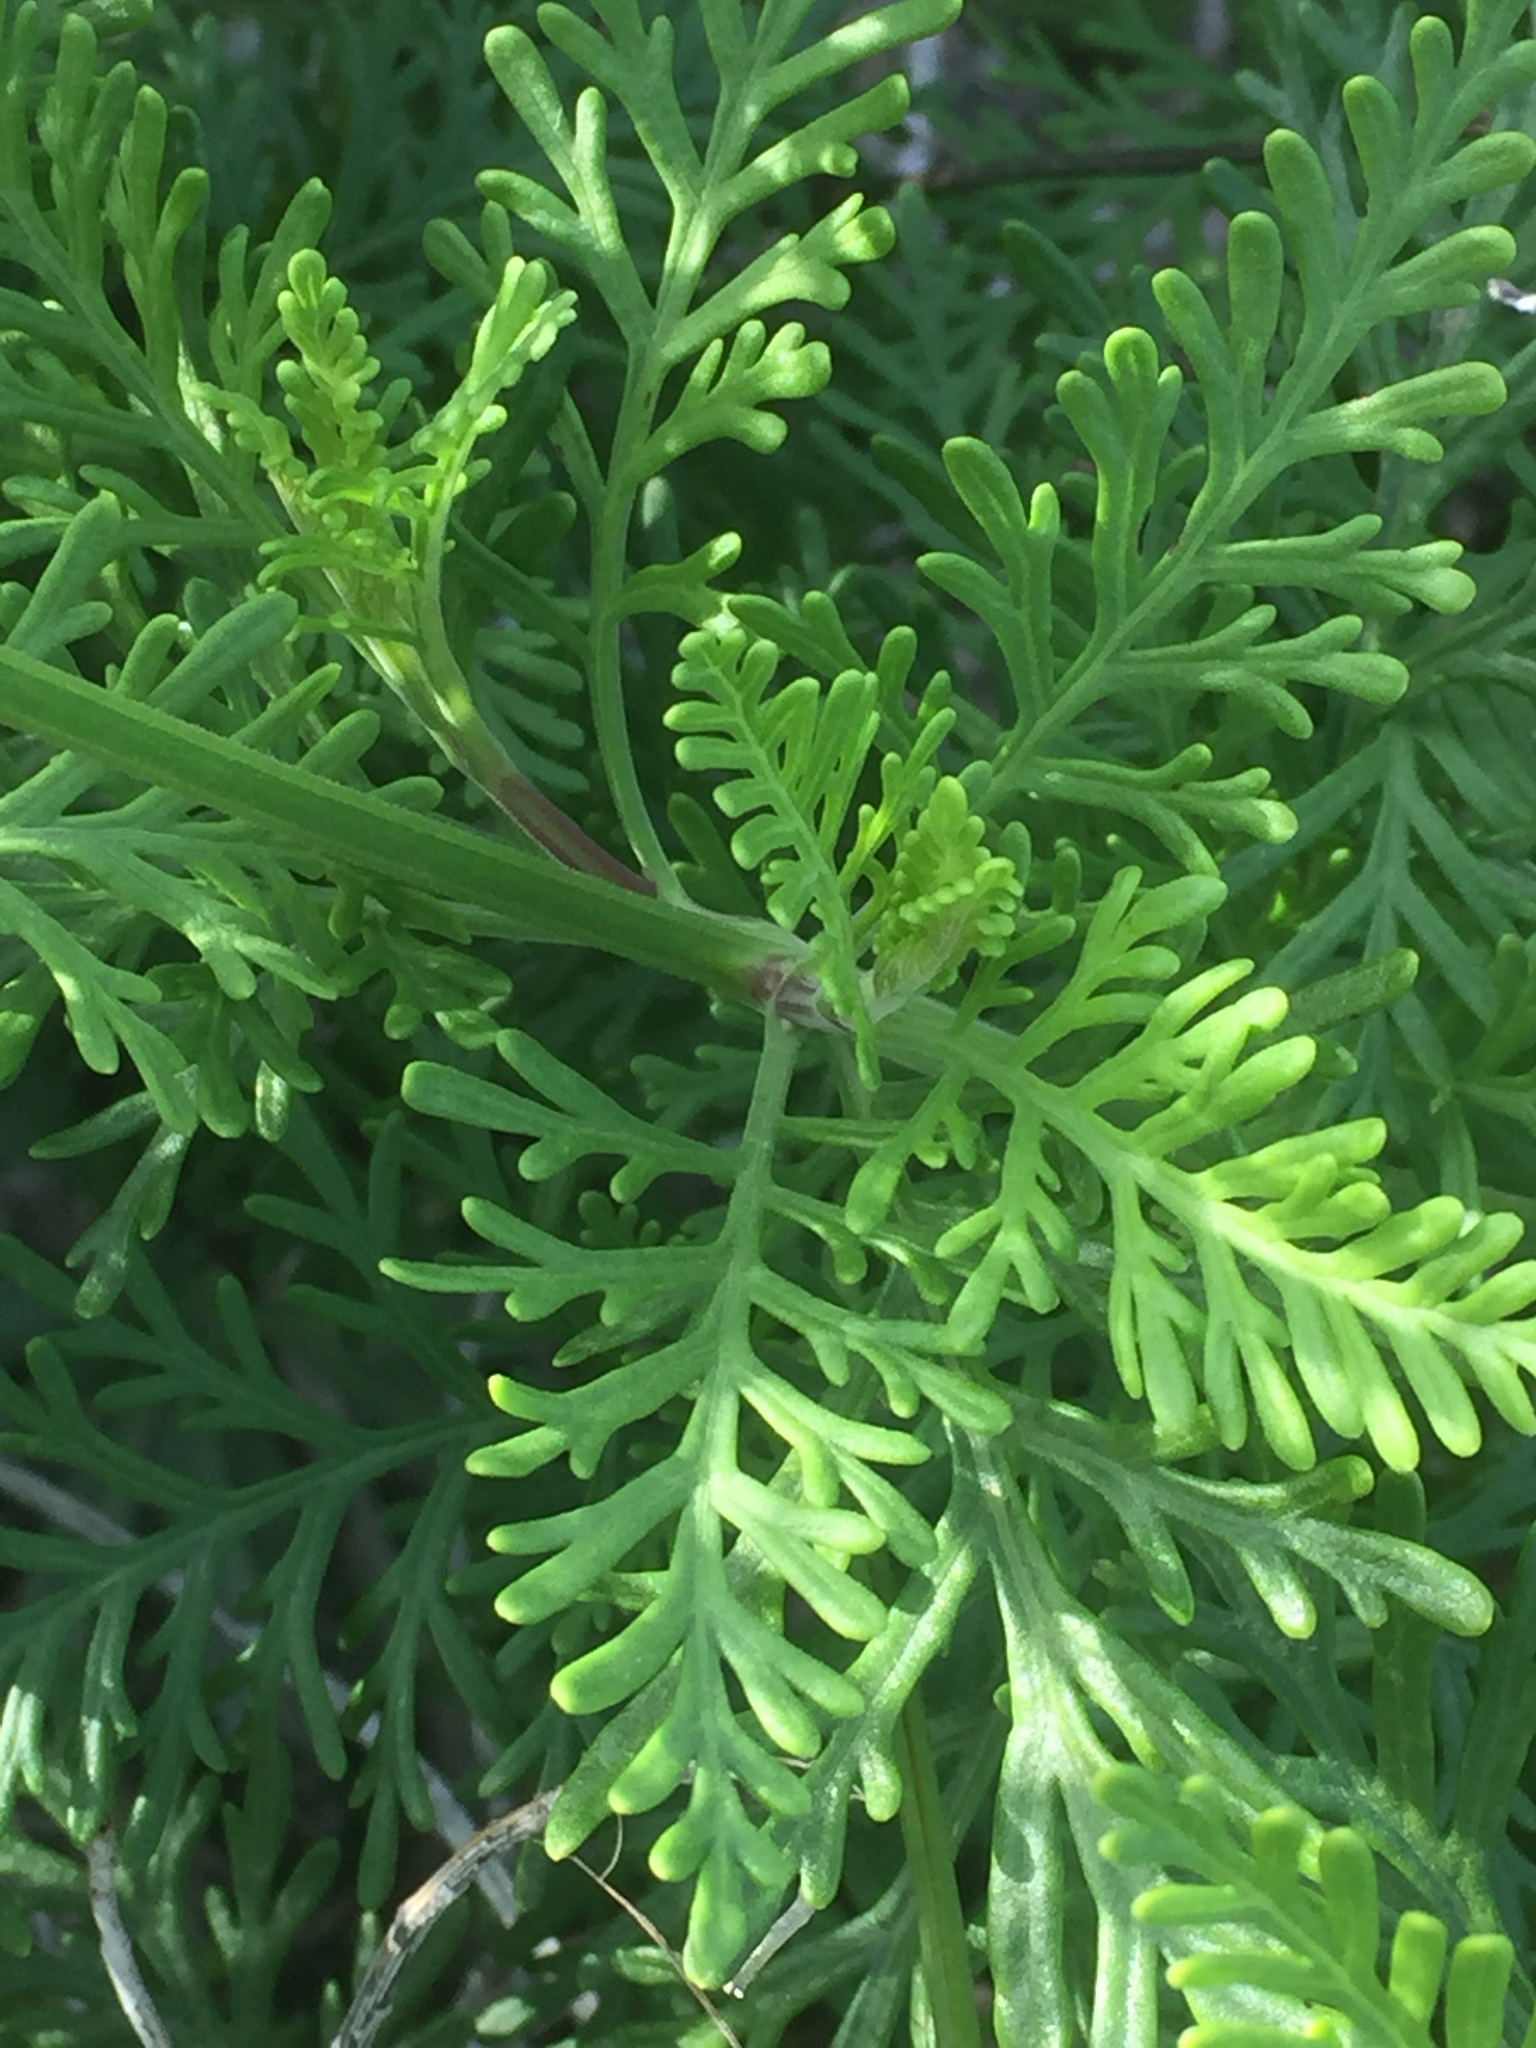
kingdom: Plantae
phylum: Tracheophyta
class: Magnoliopsida
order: Lamiales
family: Lamiaceae
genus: Lavandula
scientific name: Lavandula canariensis
